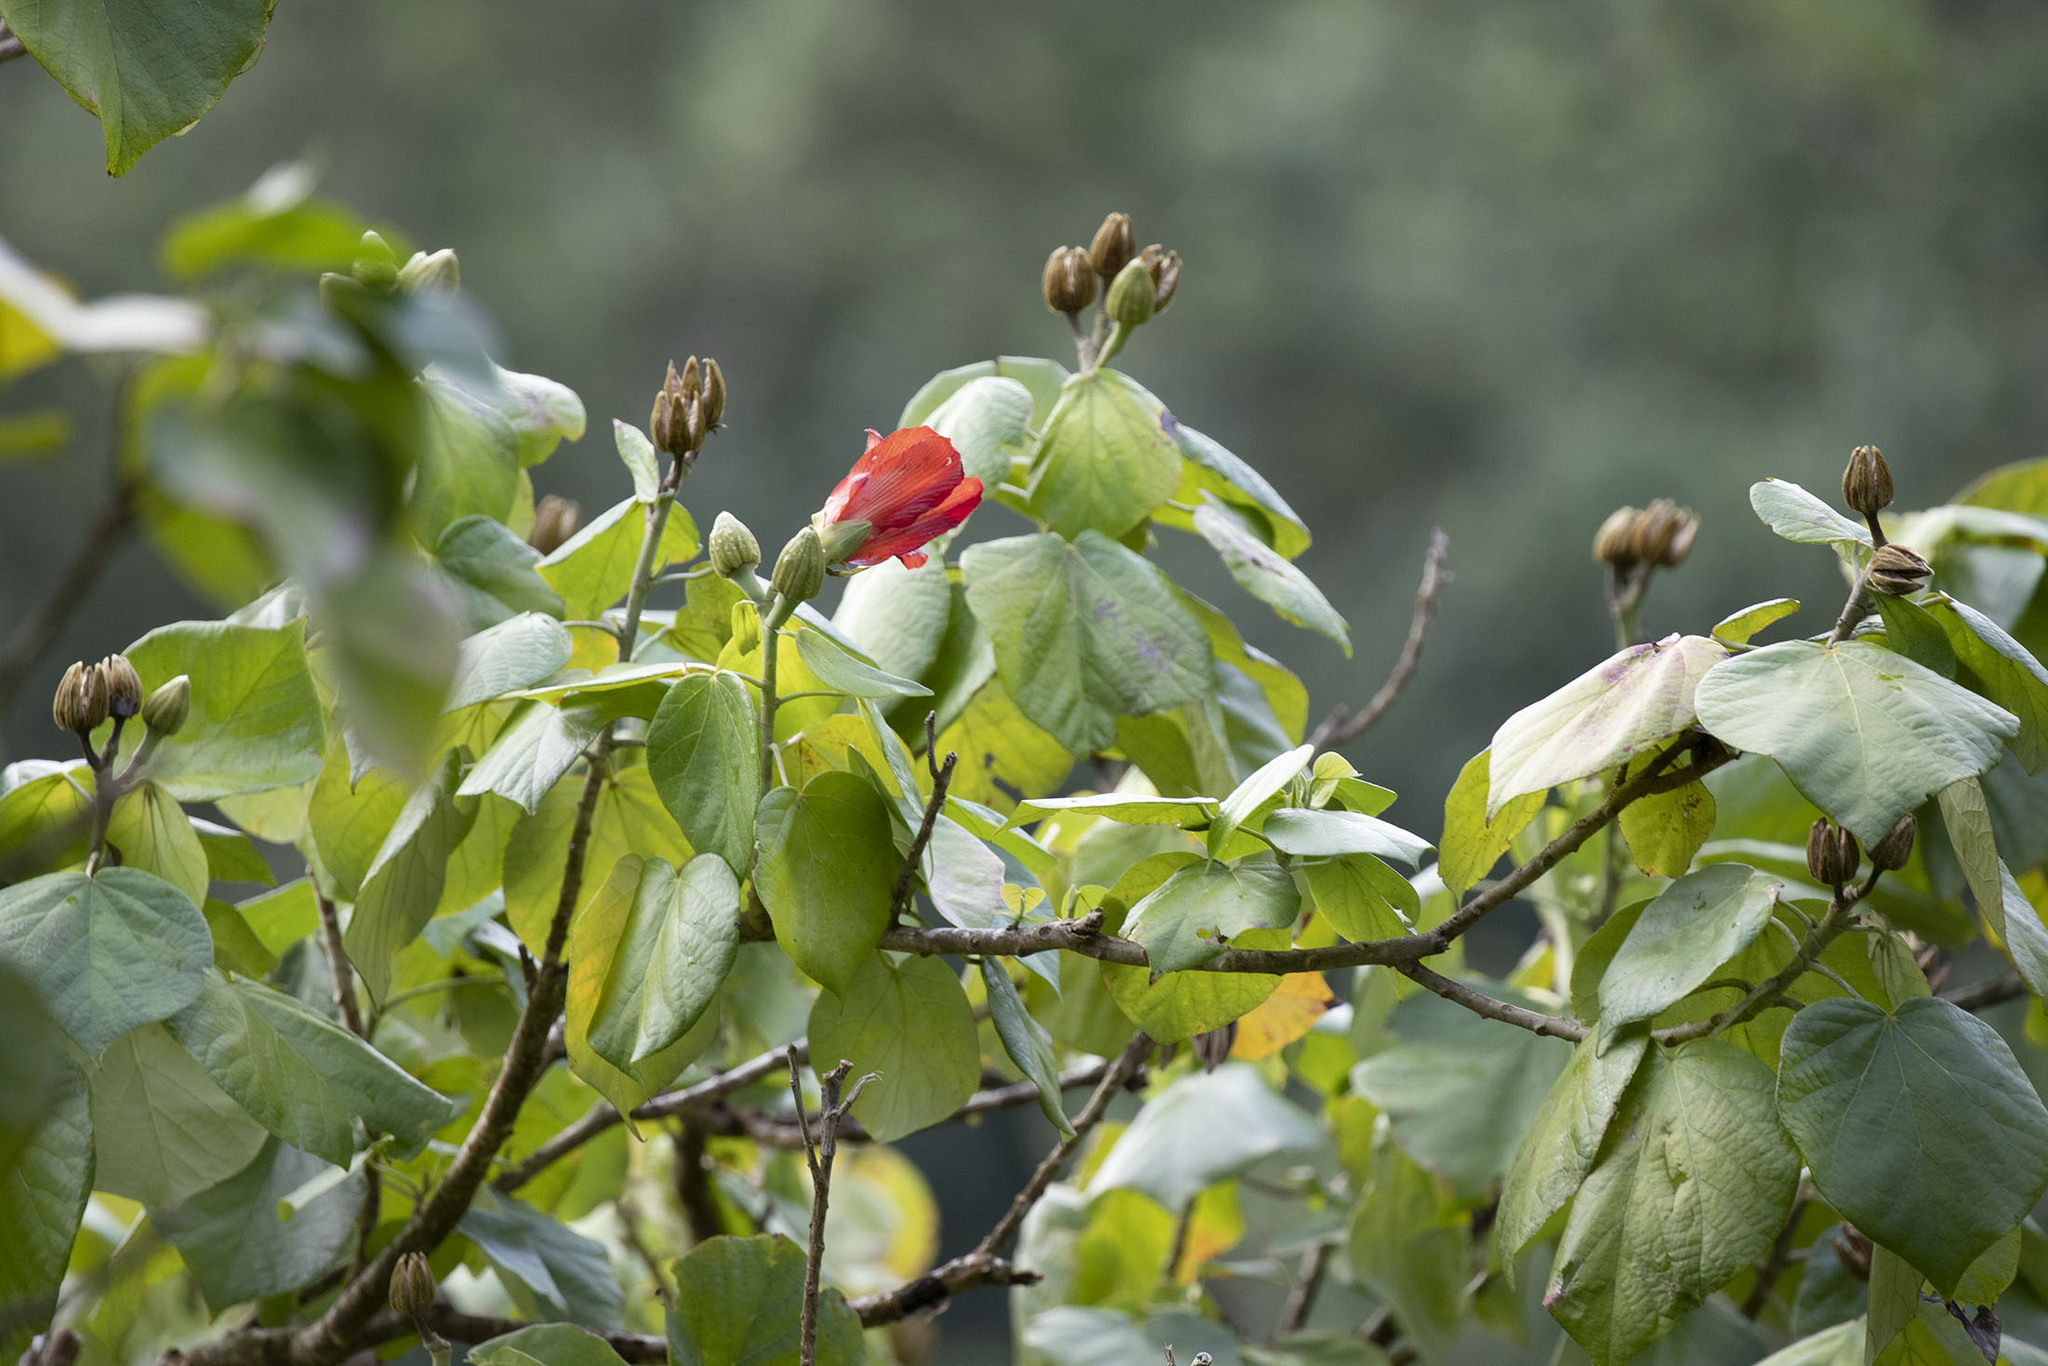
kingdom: Plantae
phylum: Tracheophyta
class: Magnoliopsida
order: Malvales
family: Malvaceae
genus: Talipariti
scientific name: Talipariti
